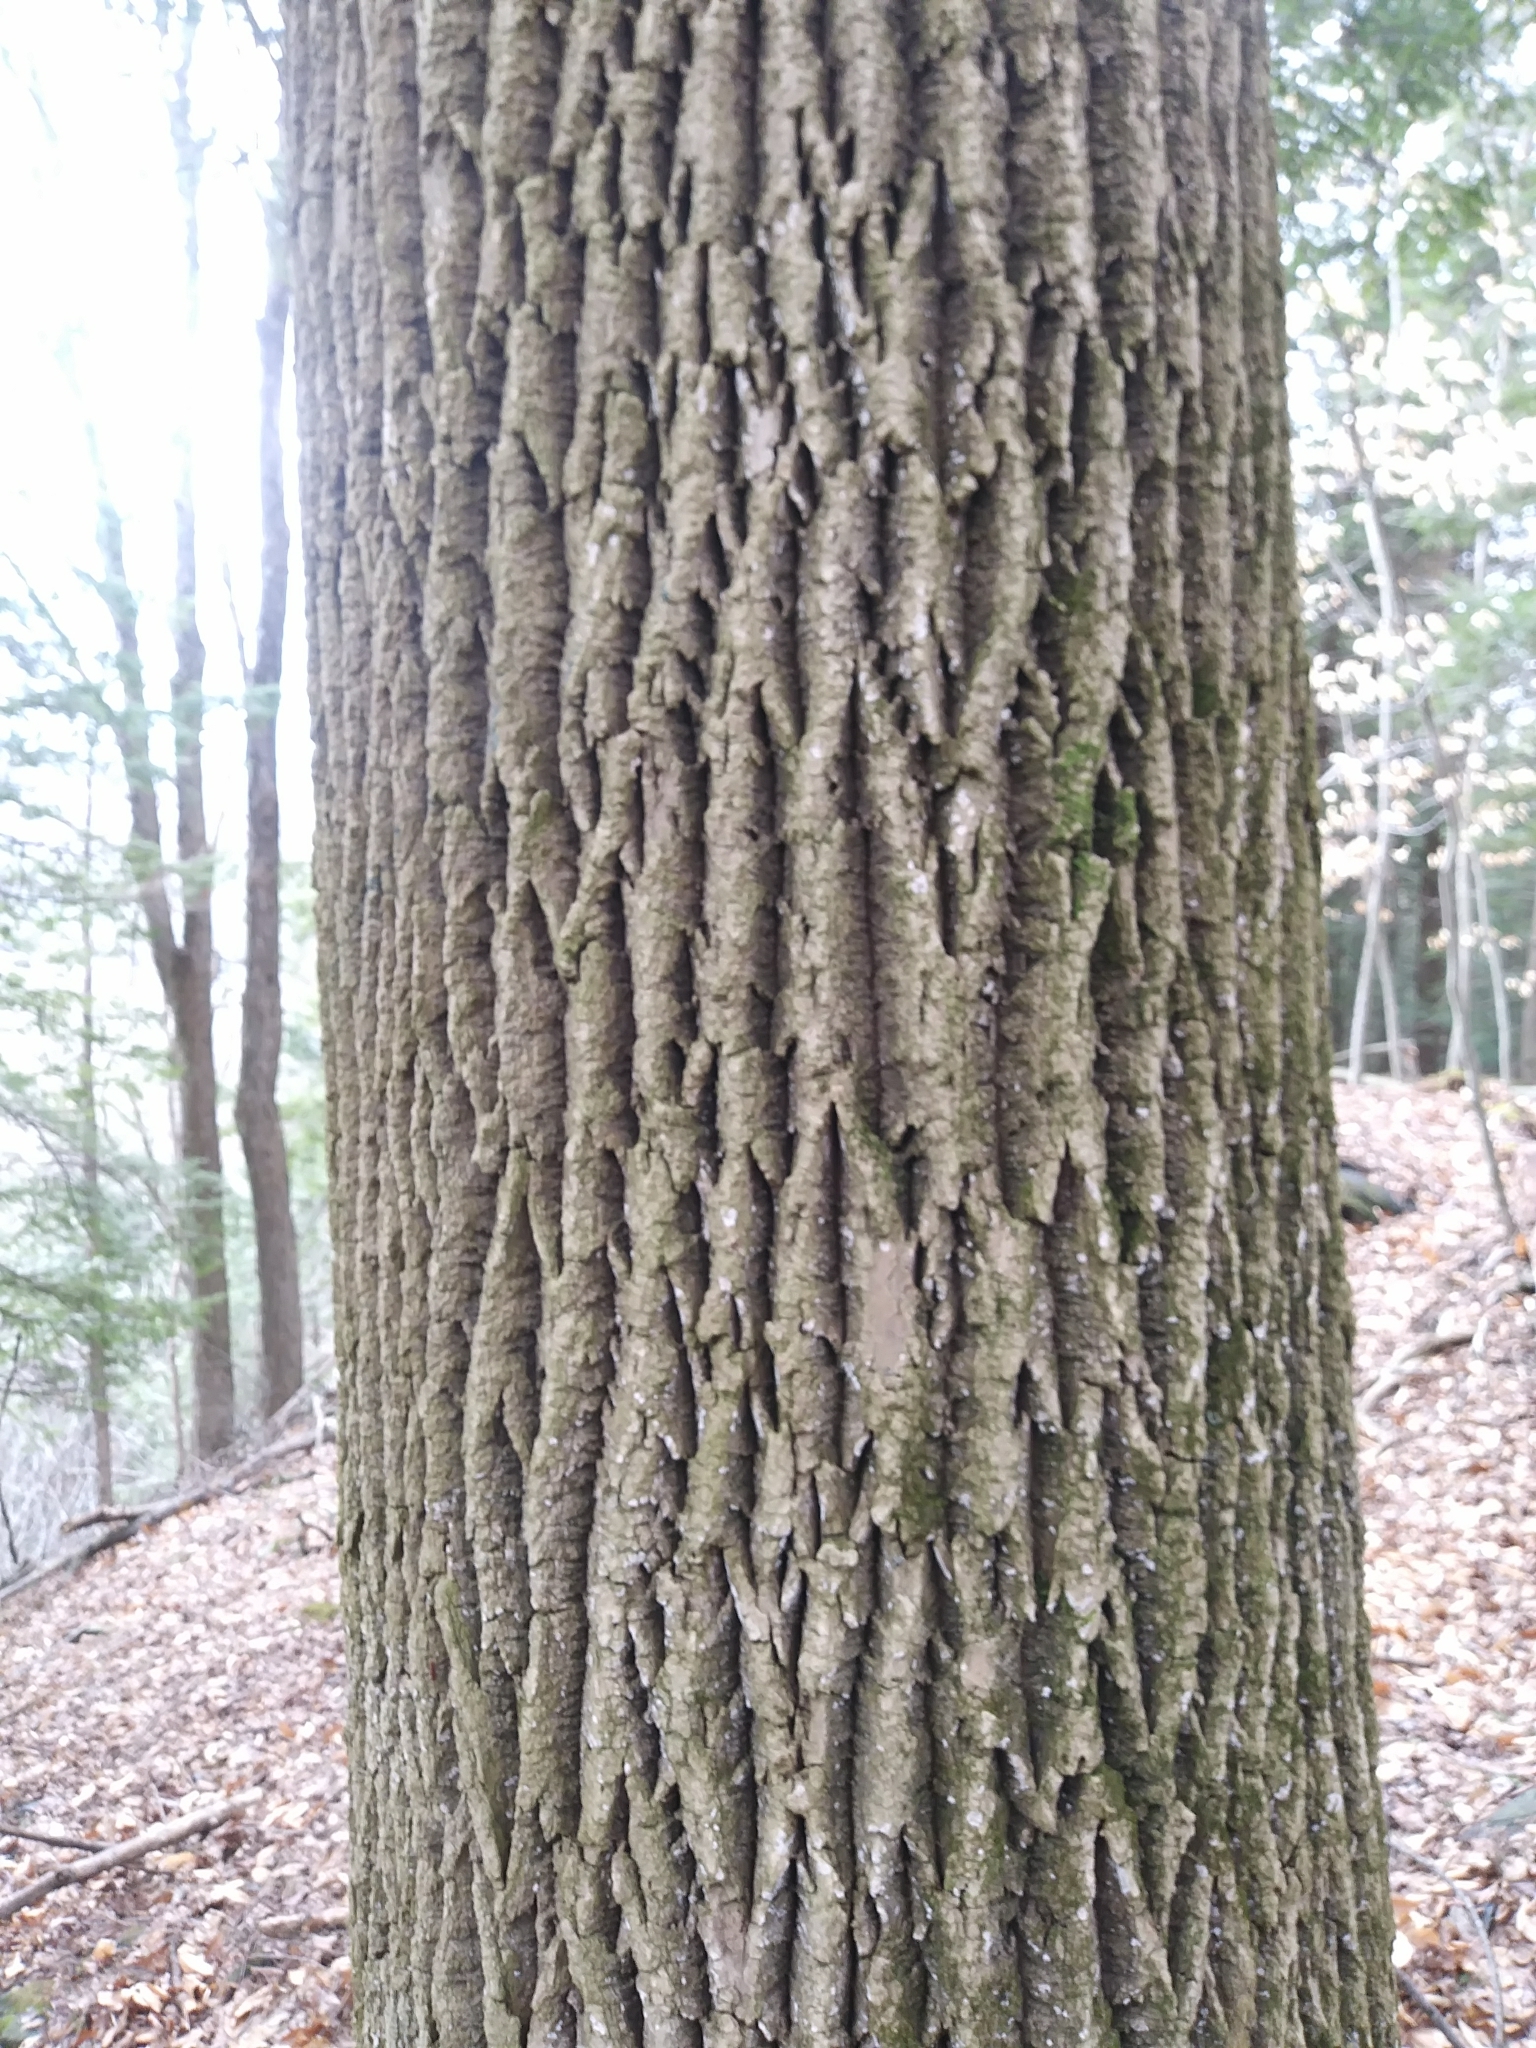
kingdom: Plantae
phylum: Tracheophyta
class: Magnoliopsida
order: Lamiales
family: Oleaceae
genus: Fraxinus
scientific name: Fraxinus americana
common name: White ash
